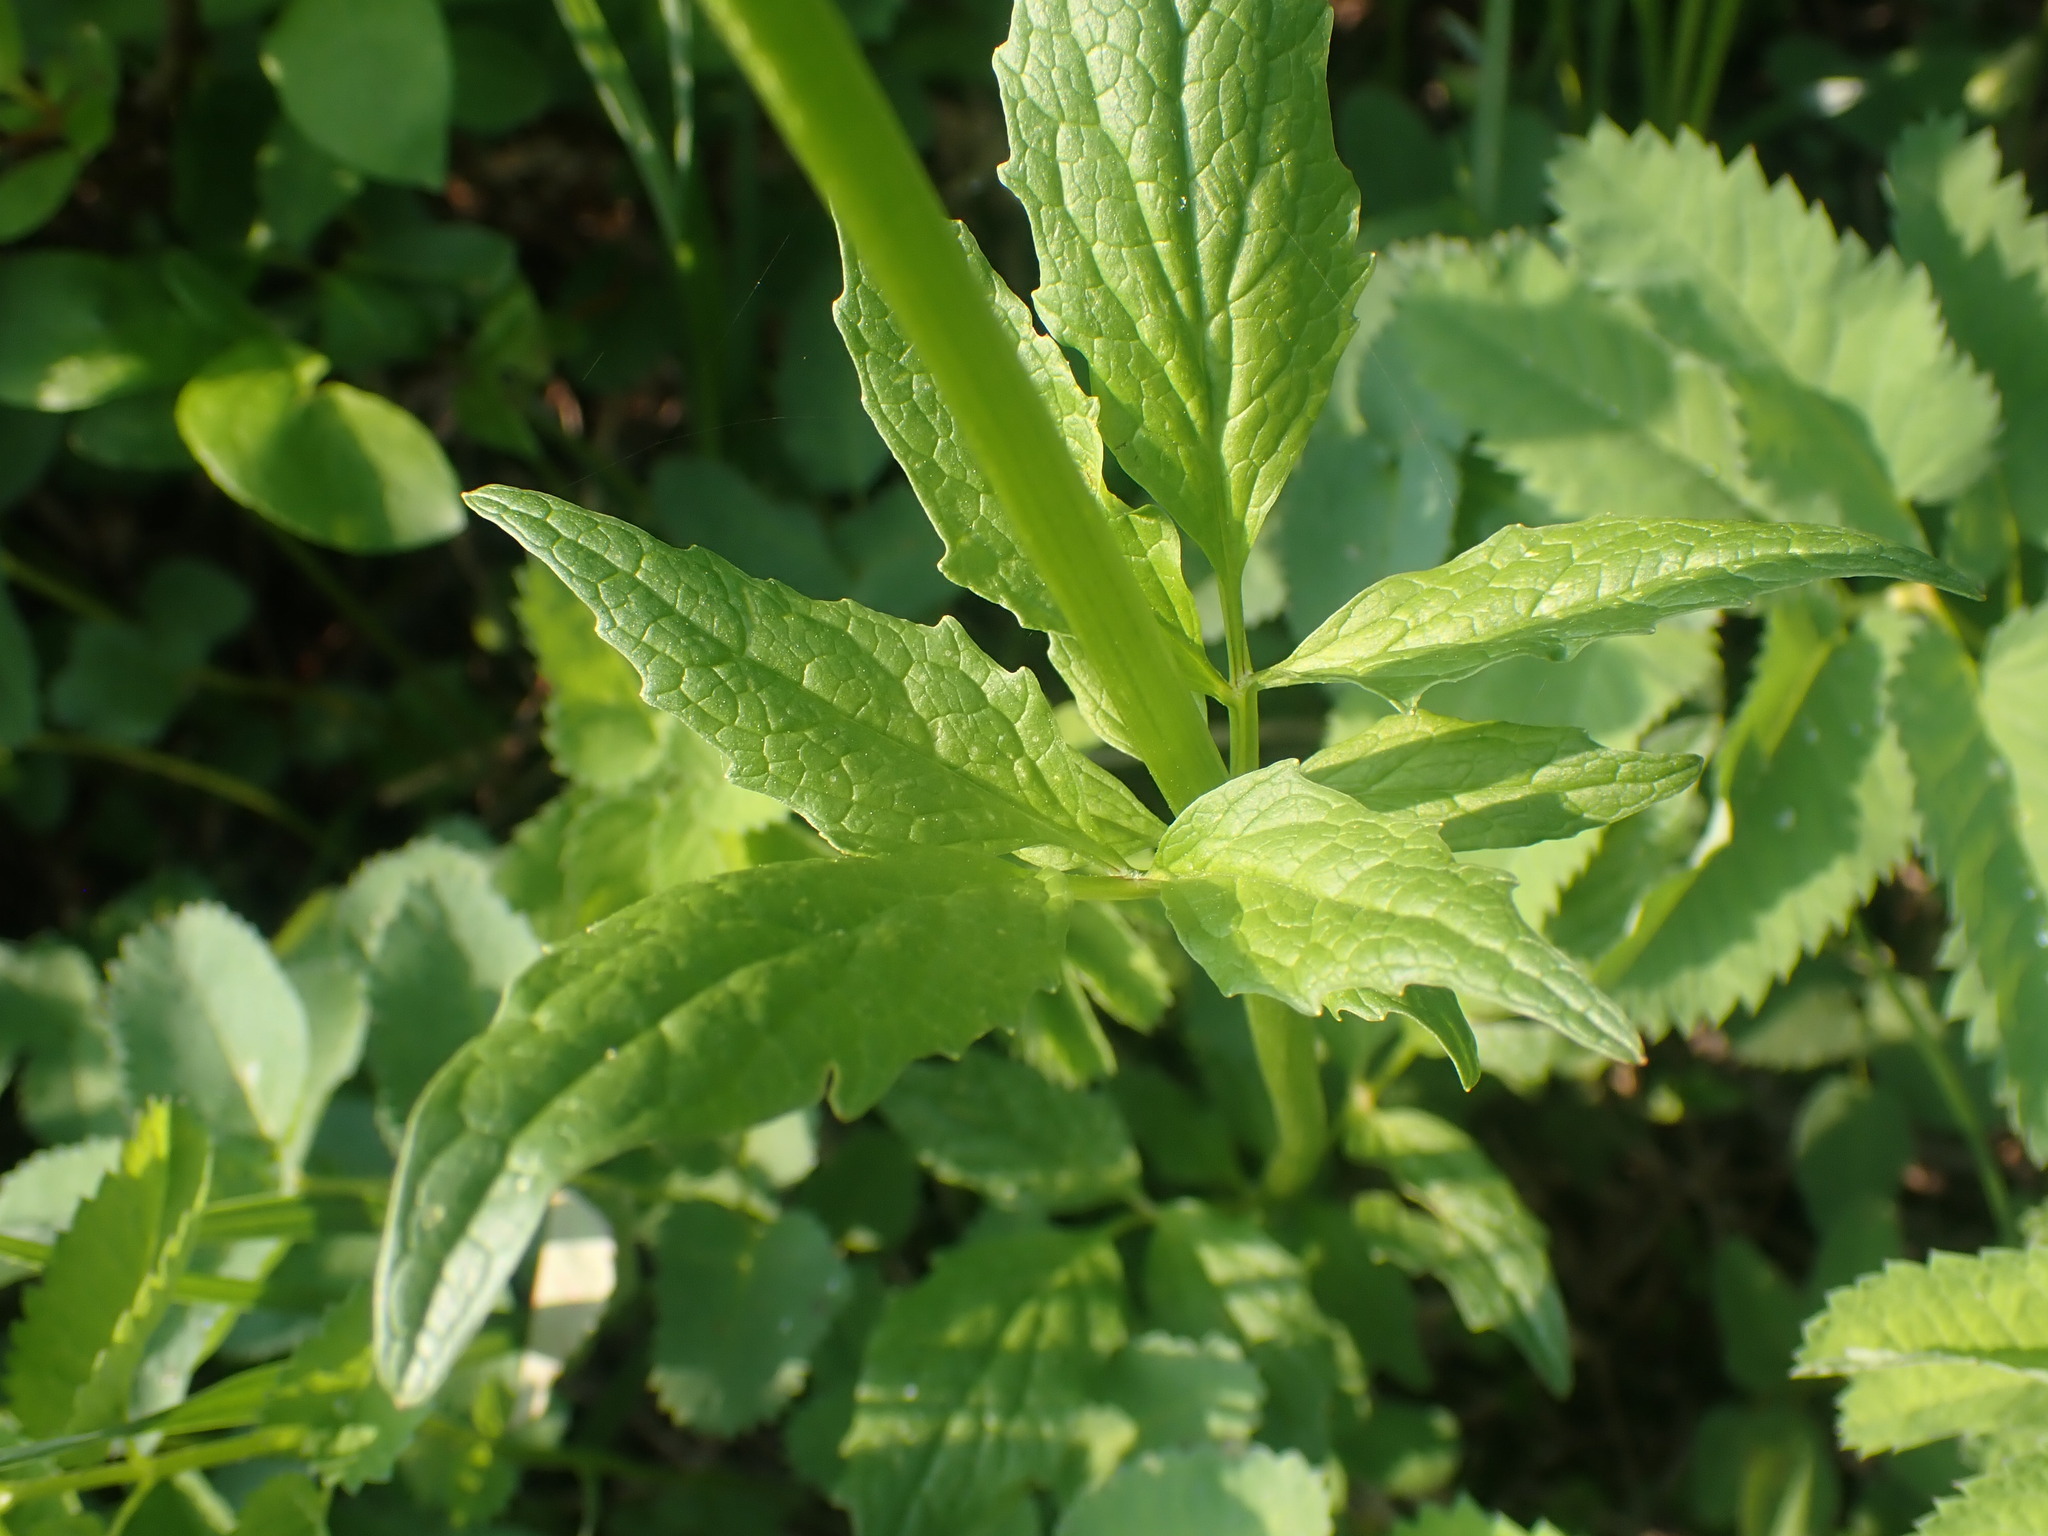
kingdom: Plantae
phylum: Tracheophyta
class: Magnoliopsida
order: Dipsacales
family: Caprifoliaceae
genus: Valeriana
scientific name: Valeriana sitchensis
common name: Pacific valerian
